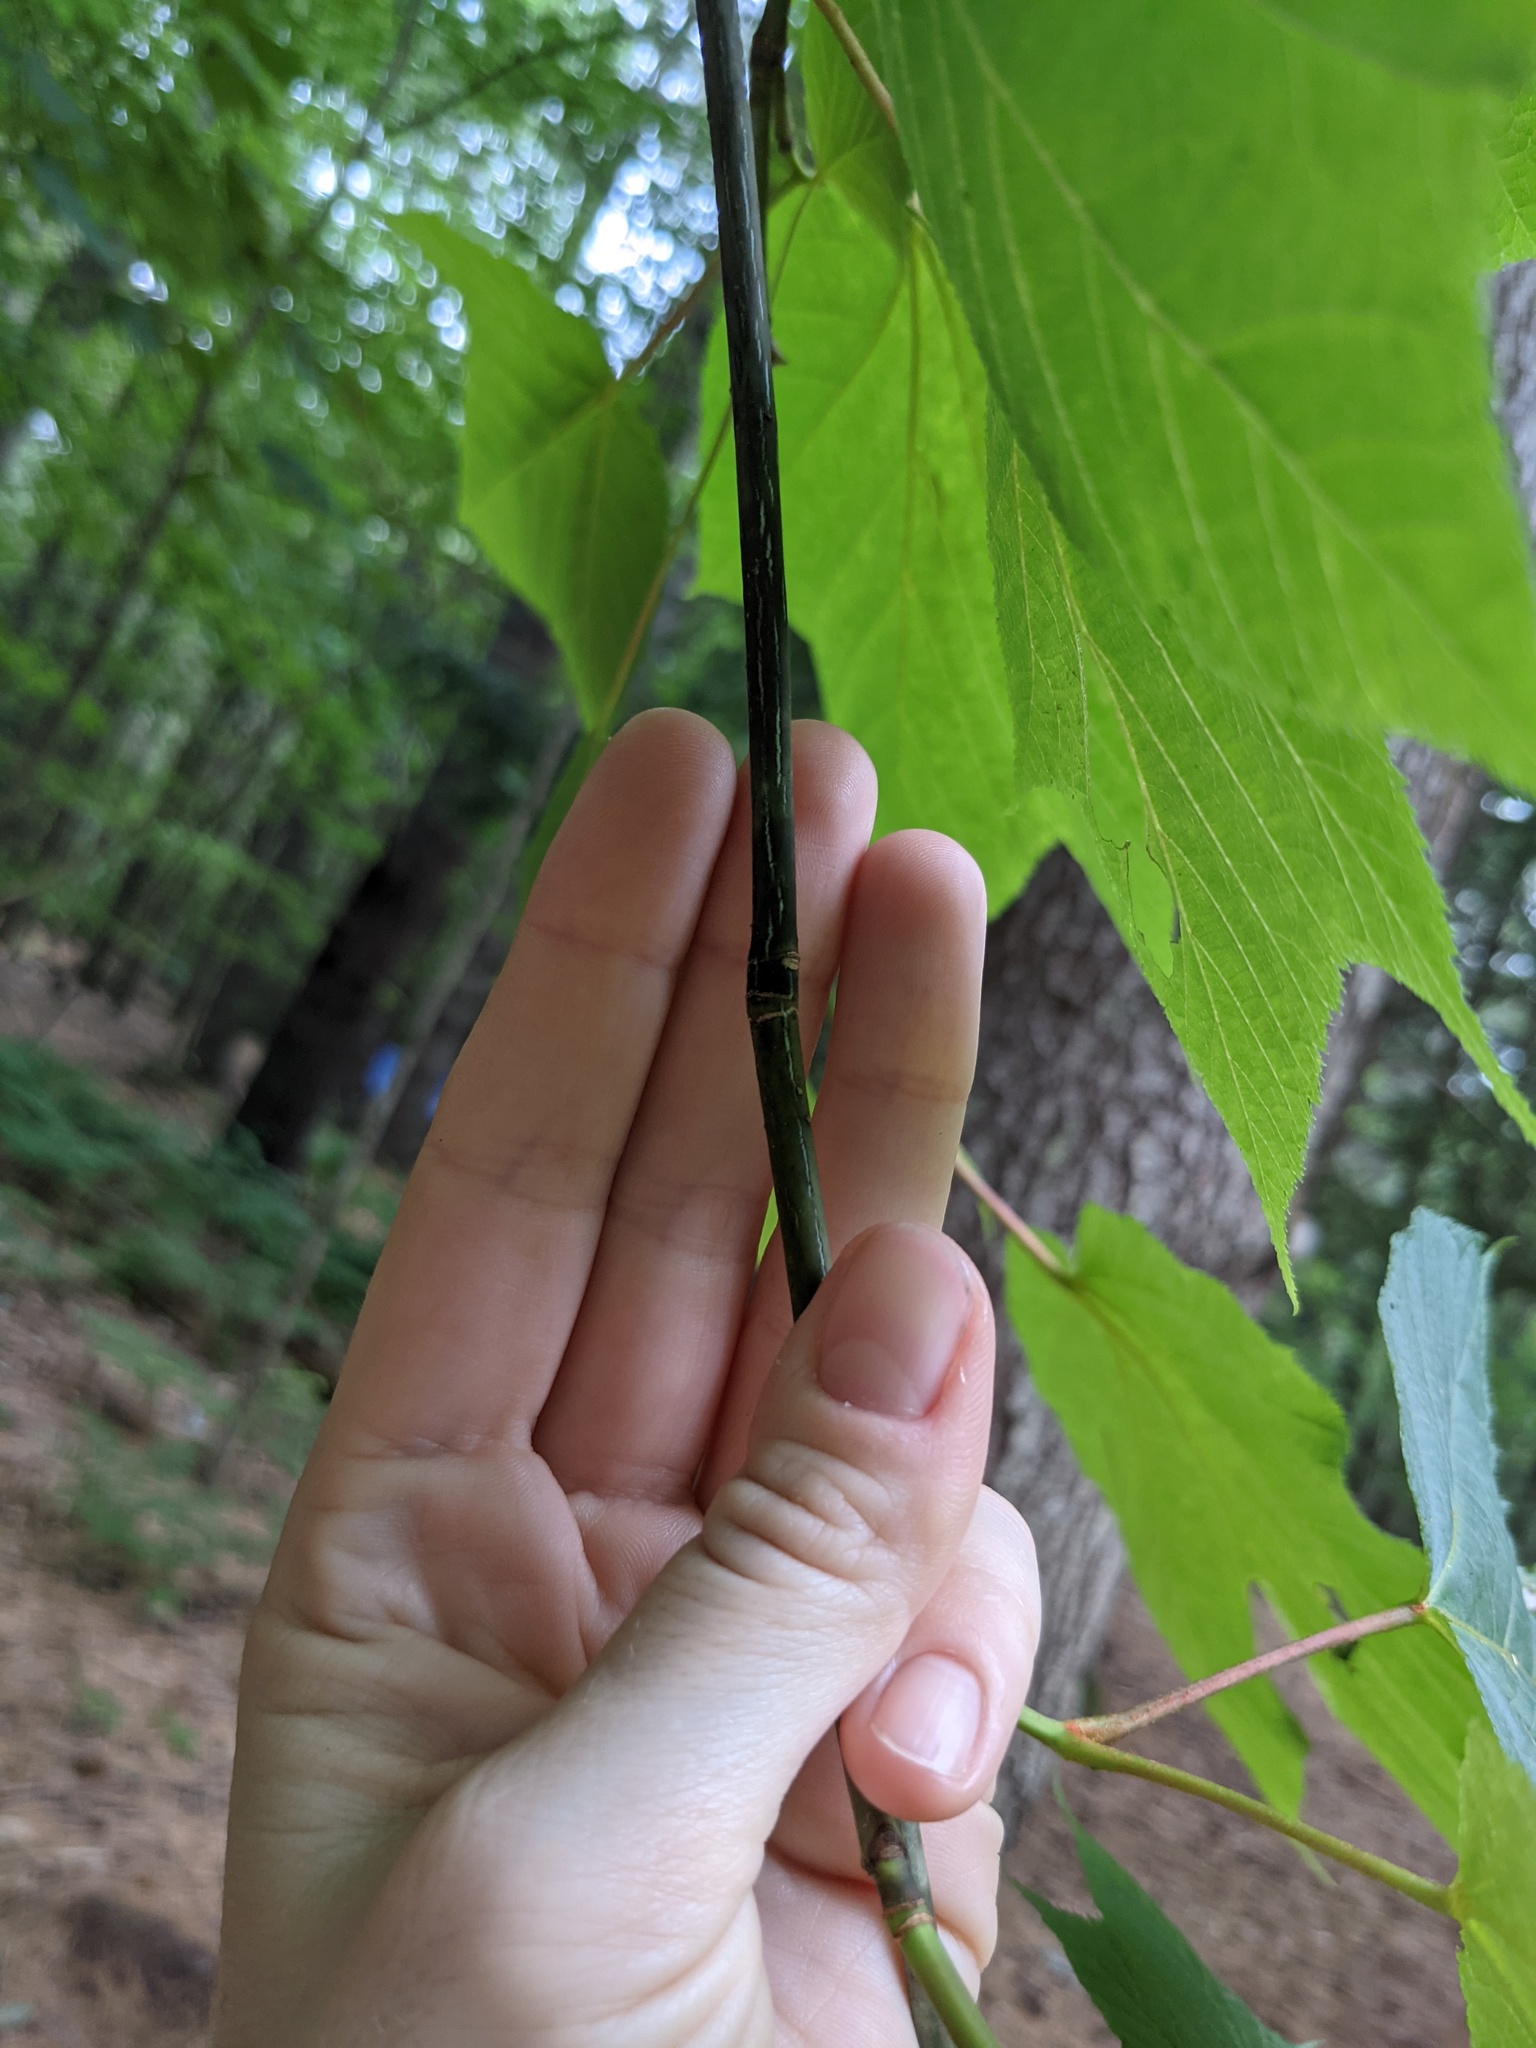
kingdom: Plantae
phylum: Tracheophyta
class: Magnoliopsida
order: Sapindales
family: Sapindaceae
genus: Acer
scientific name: Acer pensylvanicum
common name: Moosewood
